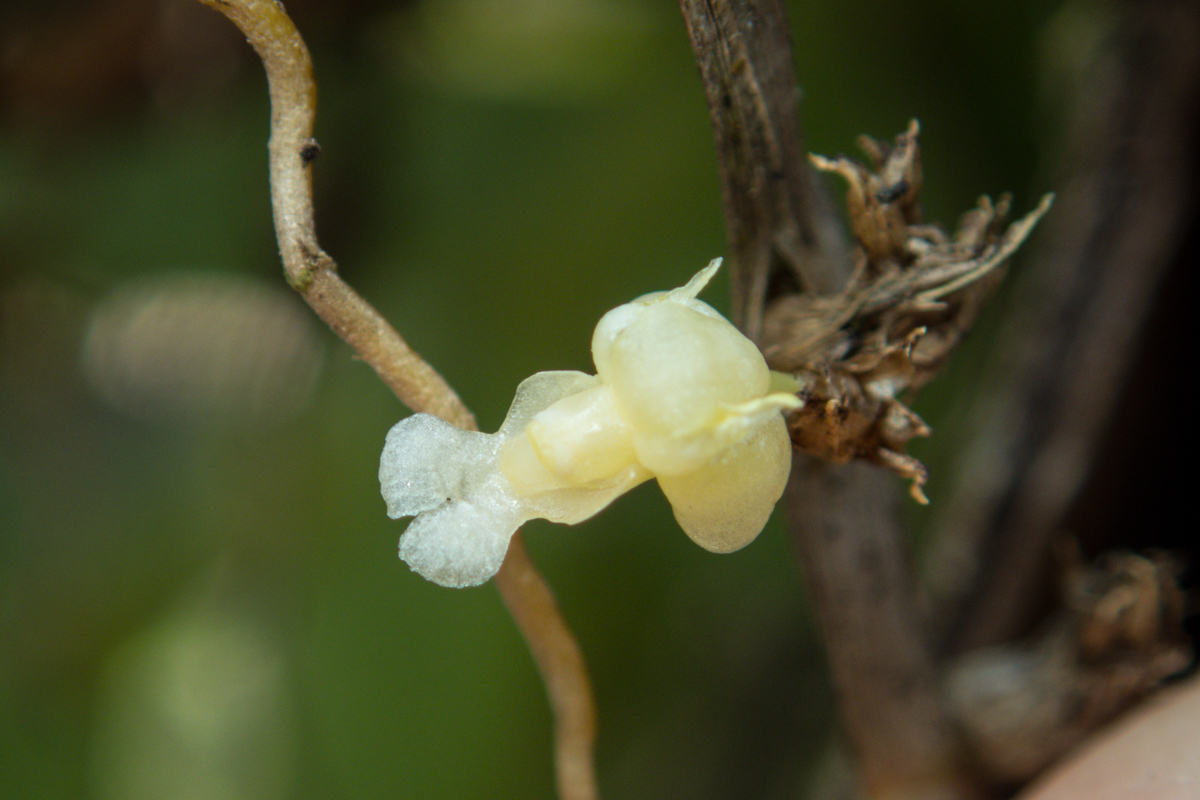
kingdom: Plantae
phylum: Tracheophyta
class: Liliopsida
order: Asparagales
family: Orchidaceae
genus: Dendrobium
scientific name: Dendrobium aloifolium
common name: Aloe-like dendrobium
